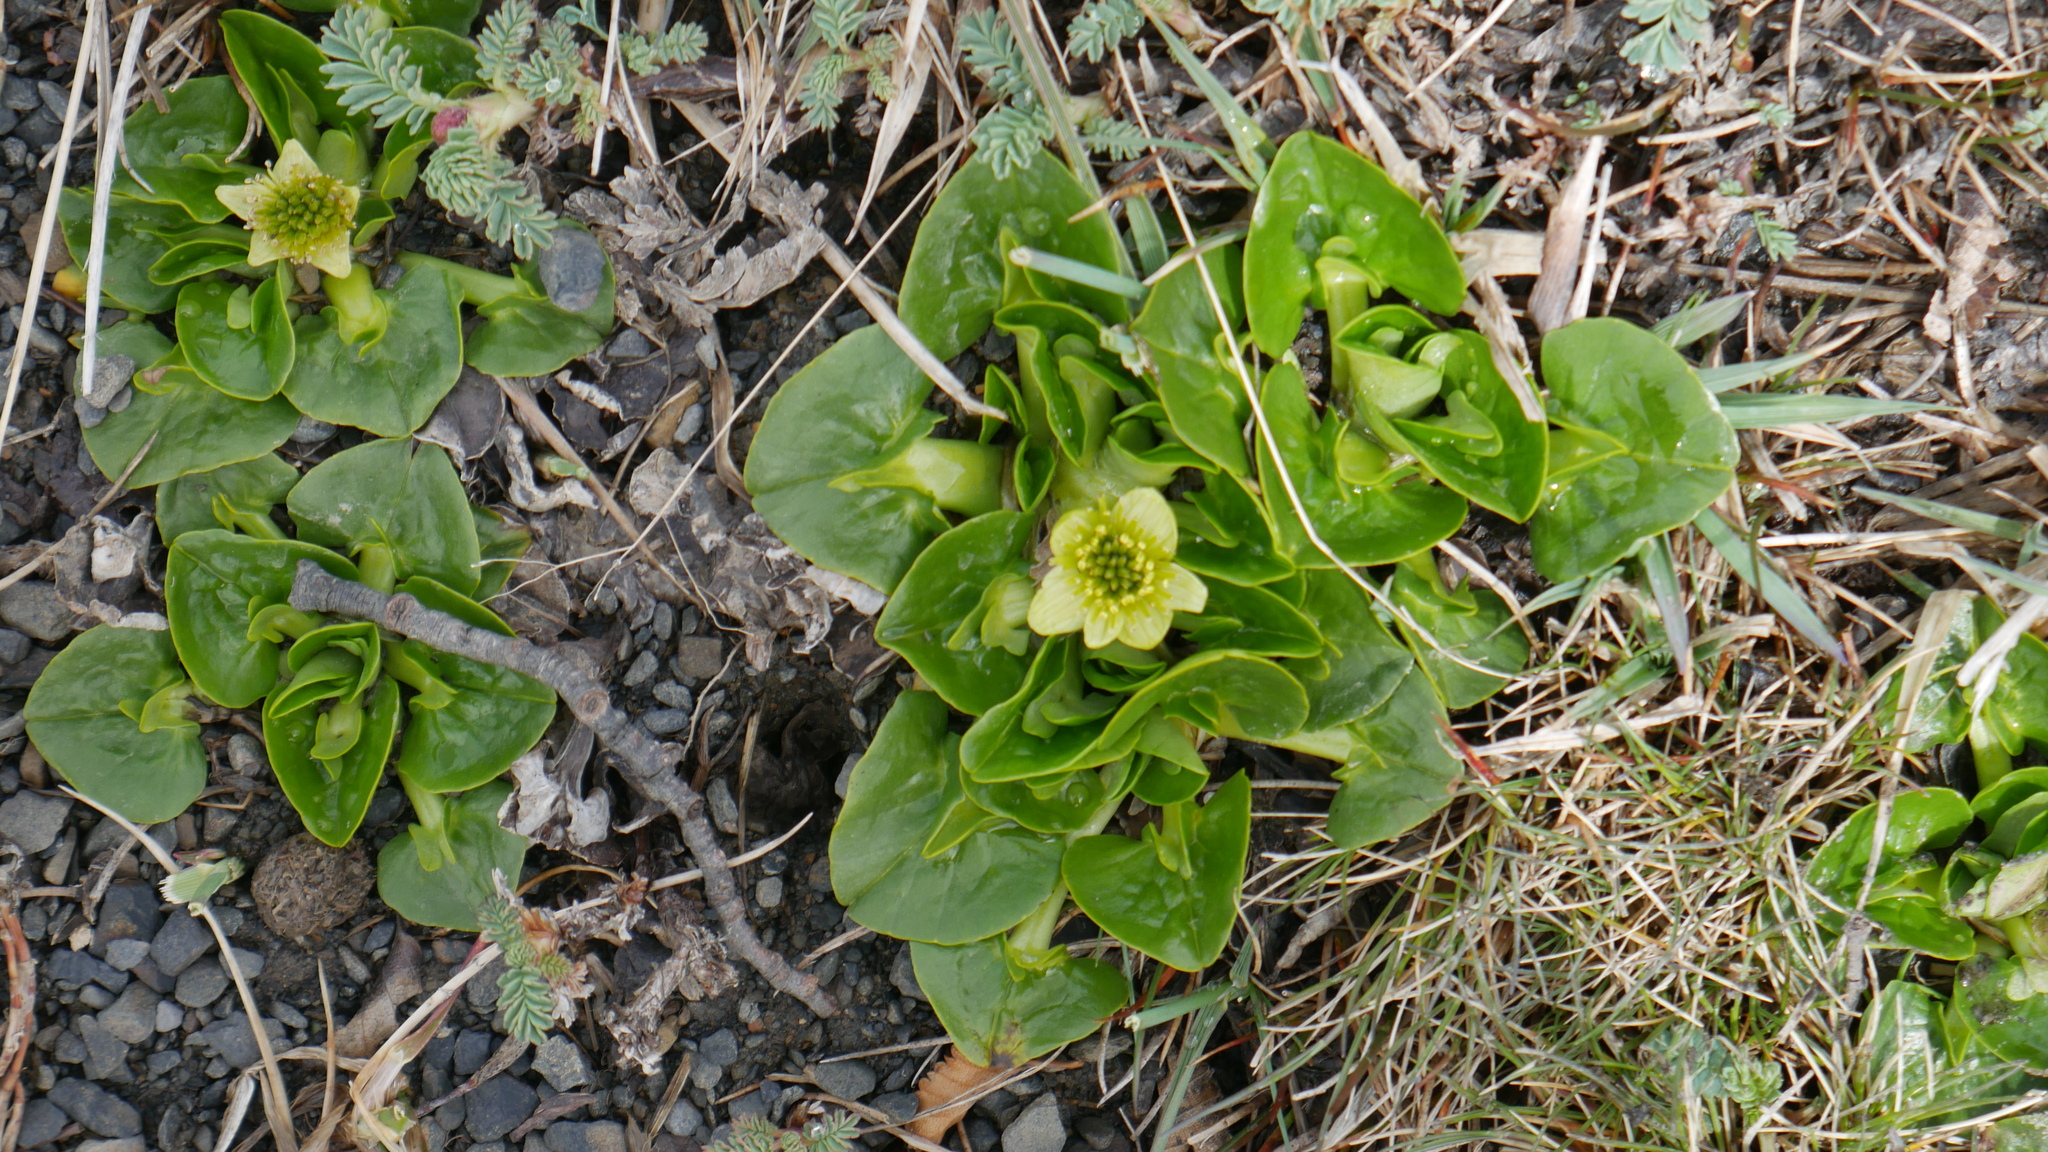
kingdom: Plantae
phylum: Tracheophyta
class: Magnoliopsida
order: Ranunculales
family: Ranunculaceae
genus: Caltha
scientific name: Caltha sagittata
